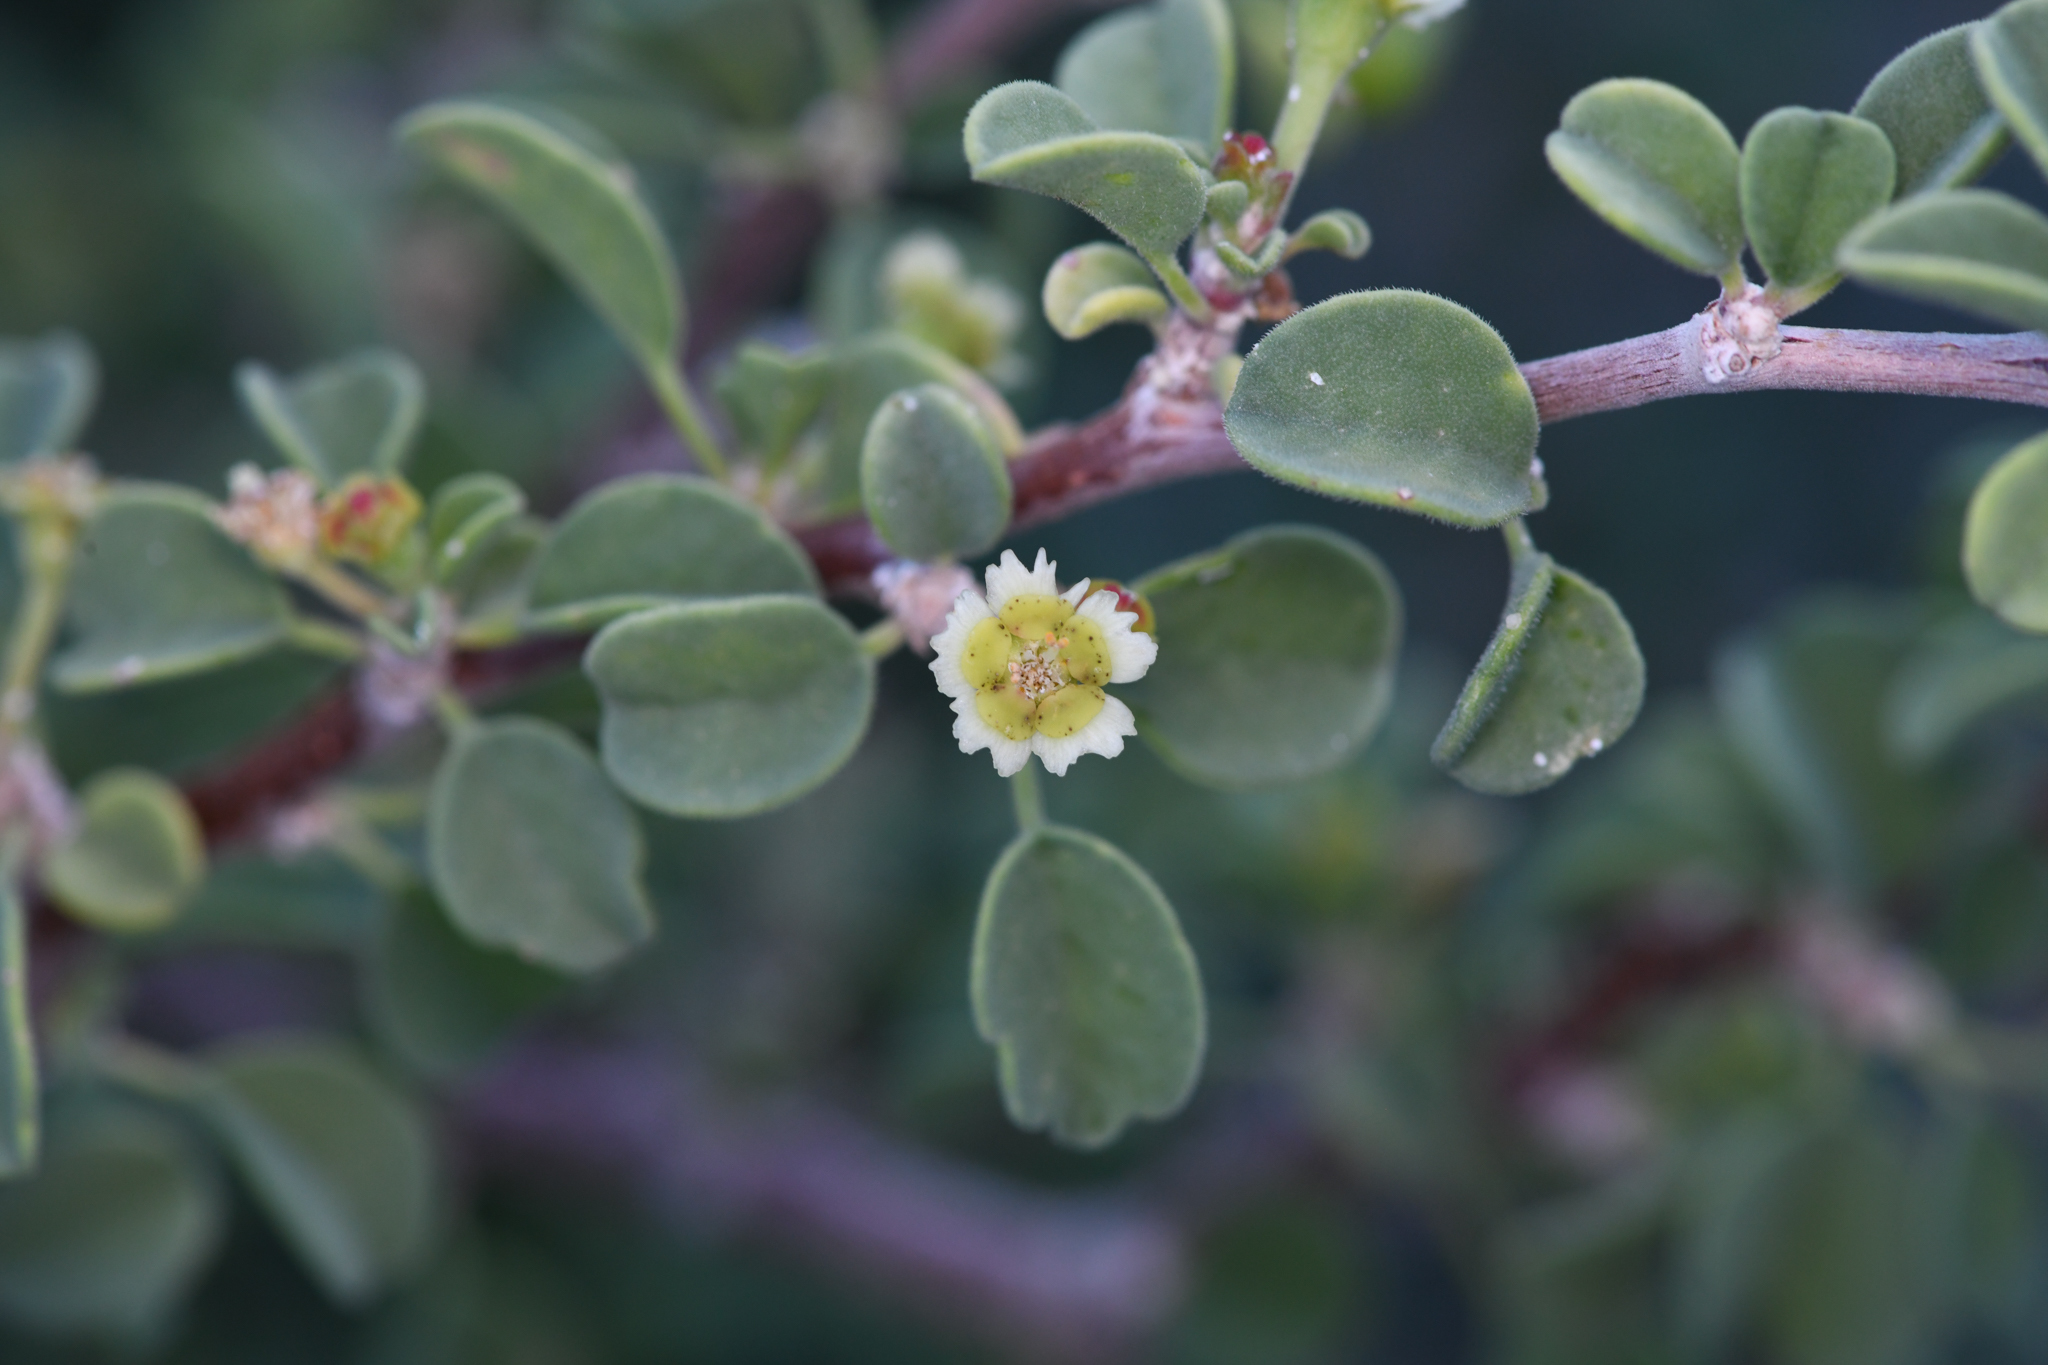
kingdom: Plantae
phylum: Tracheophyta
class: Magnoliopsida
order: Malpighiales
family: Euphorbiaceae
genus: Euphorbia
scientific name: Euphorbia misera
